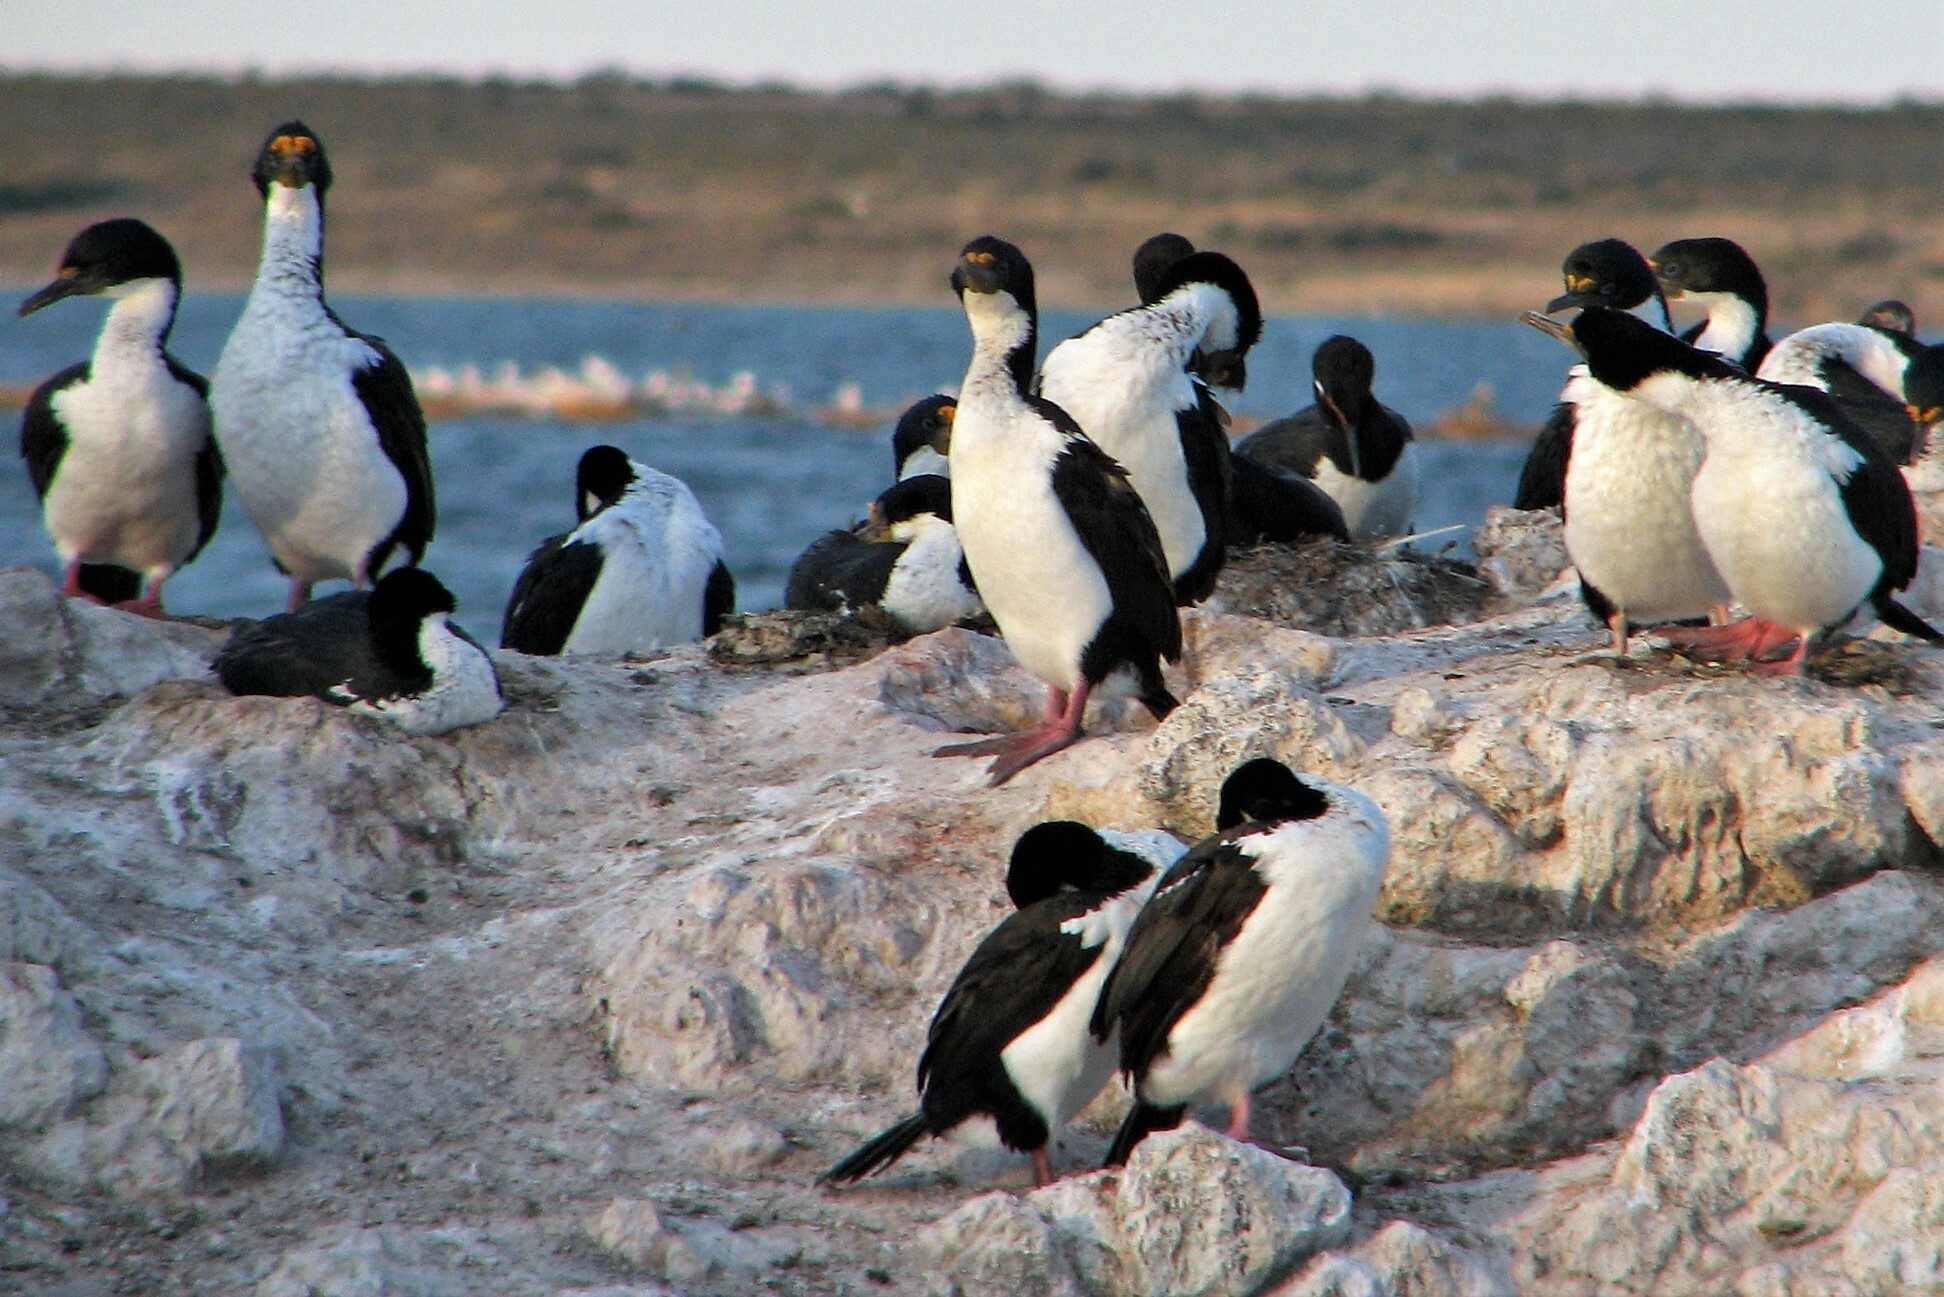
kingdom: Animalia
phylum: Chordata
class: Aves
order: Suliformes
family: Phalacrocoracidae
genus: Leucocarbo
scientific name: Leucocarbo atriceps
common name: Imperial shag
